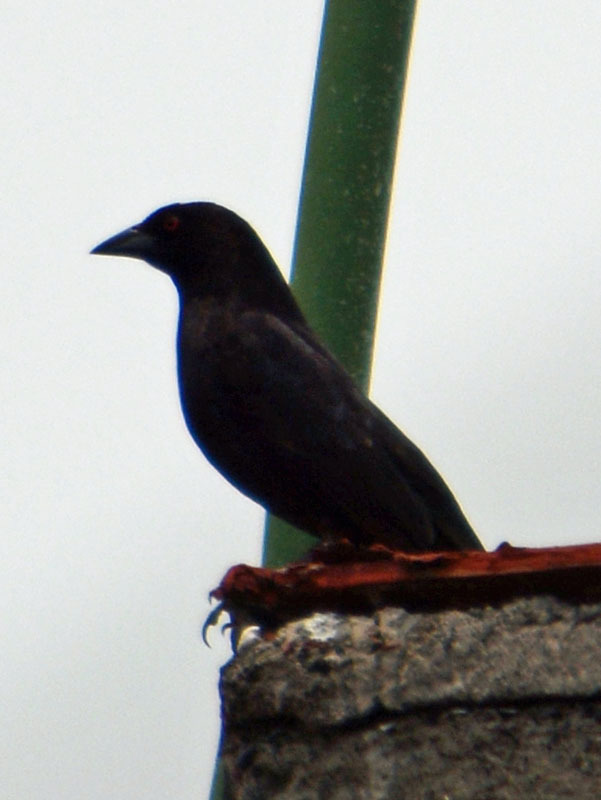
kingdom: Animalia
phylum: Chordata
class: Aves
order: Passeriformes
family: Icteridae
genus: Molothrus
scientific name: Molothrus aeneus
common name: Bronzed cowbird
